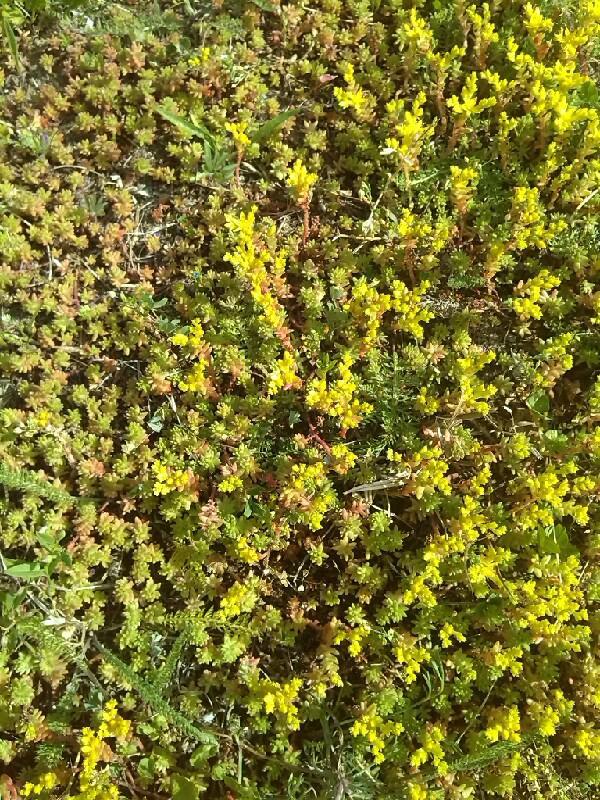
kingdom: Plantae
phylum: Tracheophyta
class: Magnoliopsida
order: Saxifragales
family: Crassulaceae
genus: Sedum
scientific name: Sedum sexangulare
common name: Tasteless stonecrop
